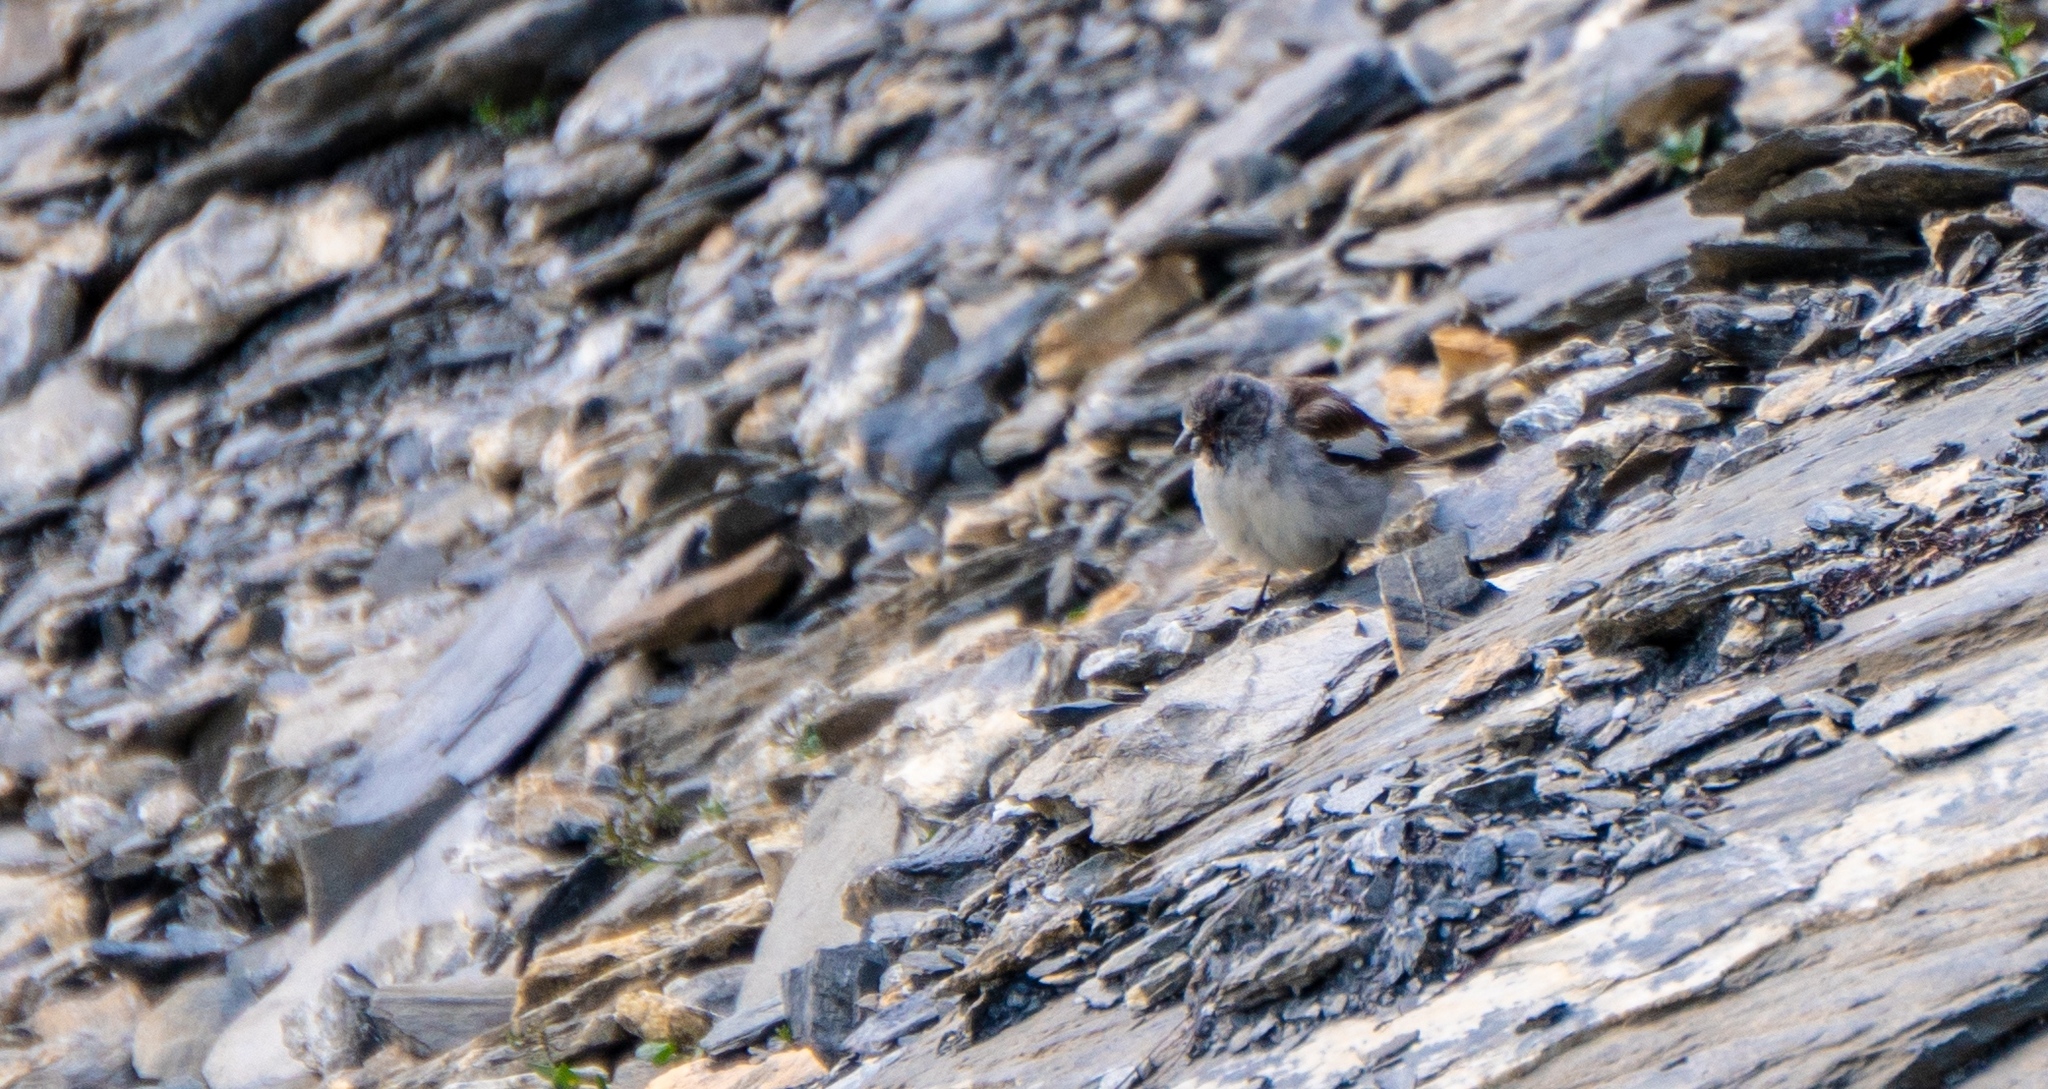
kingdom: Animalia
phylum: Chordata
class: Aves
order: Passeriformes
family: Passeridae
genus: Montifringilla
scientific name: Montifringilla nivalis
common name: White-winged snowfinch
